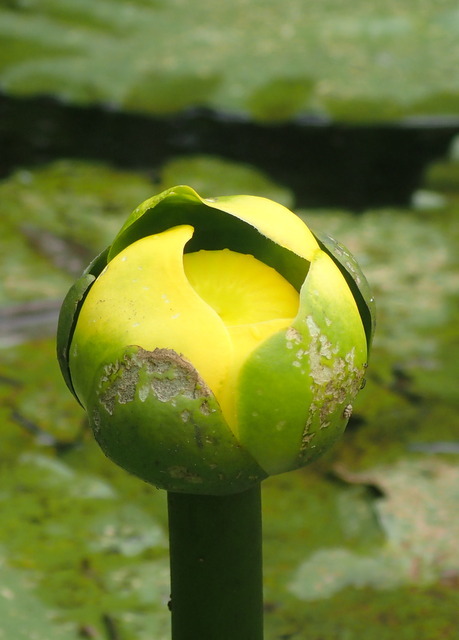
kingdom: Plantae
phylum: Tracheophyta
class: Magnoliopsida
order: Nymphaeales
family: Nymphaeaceae
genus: Nuphar
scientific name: Nuphar advena
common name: Spatter-dock
